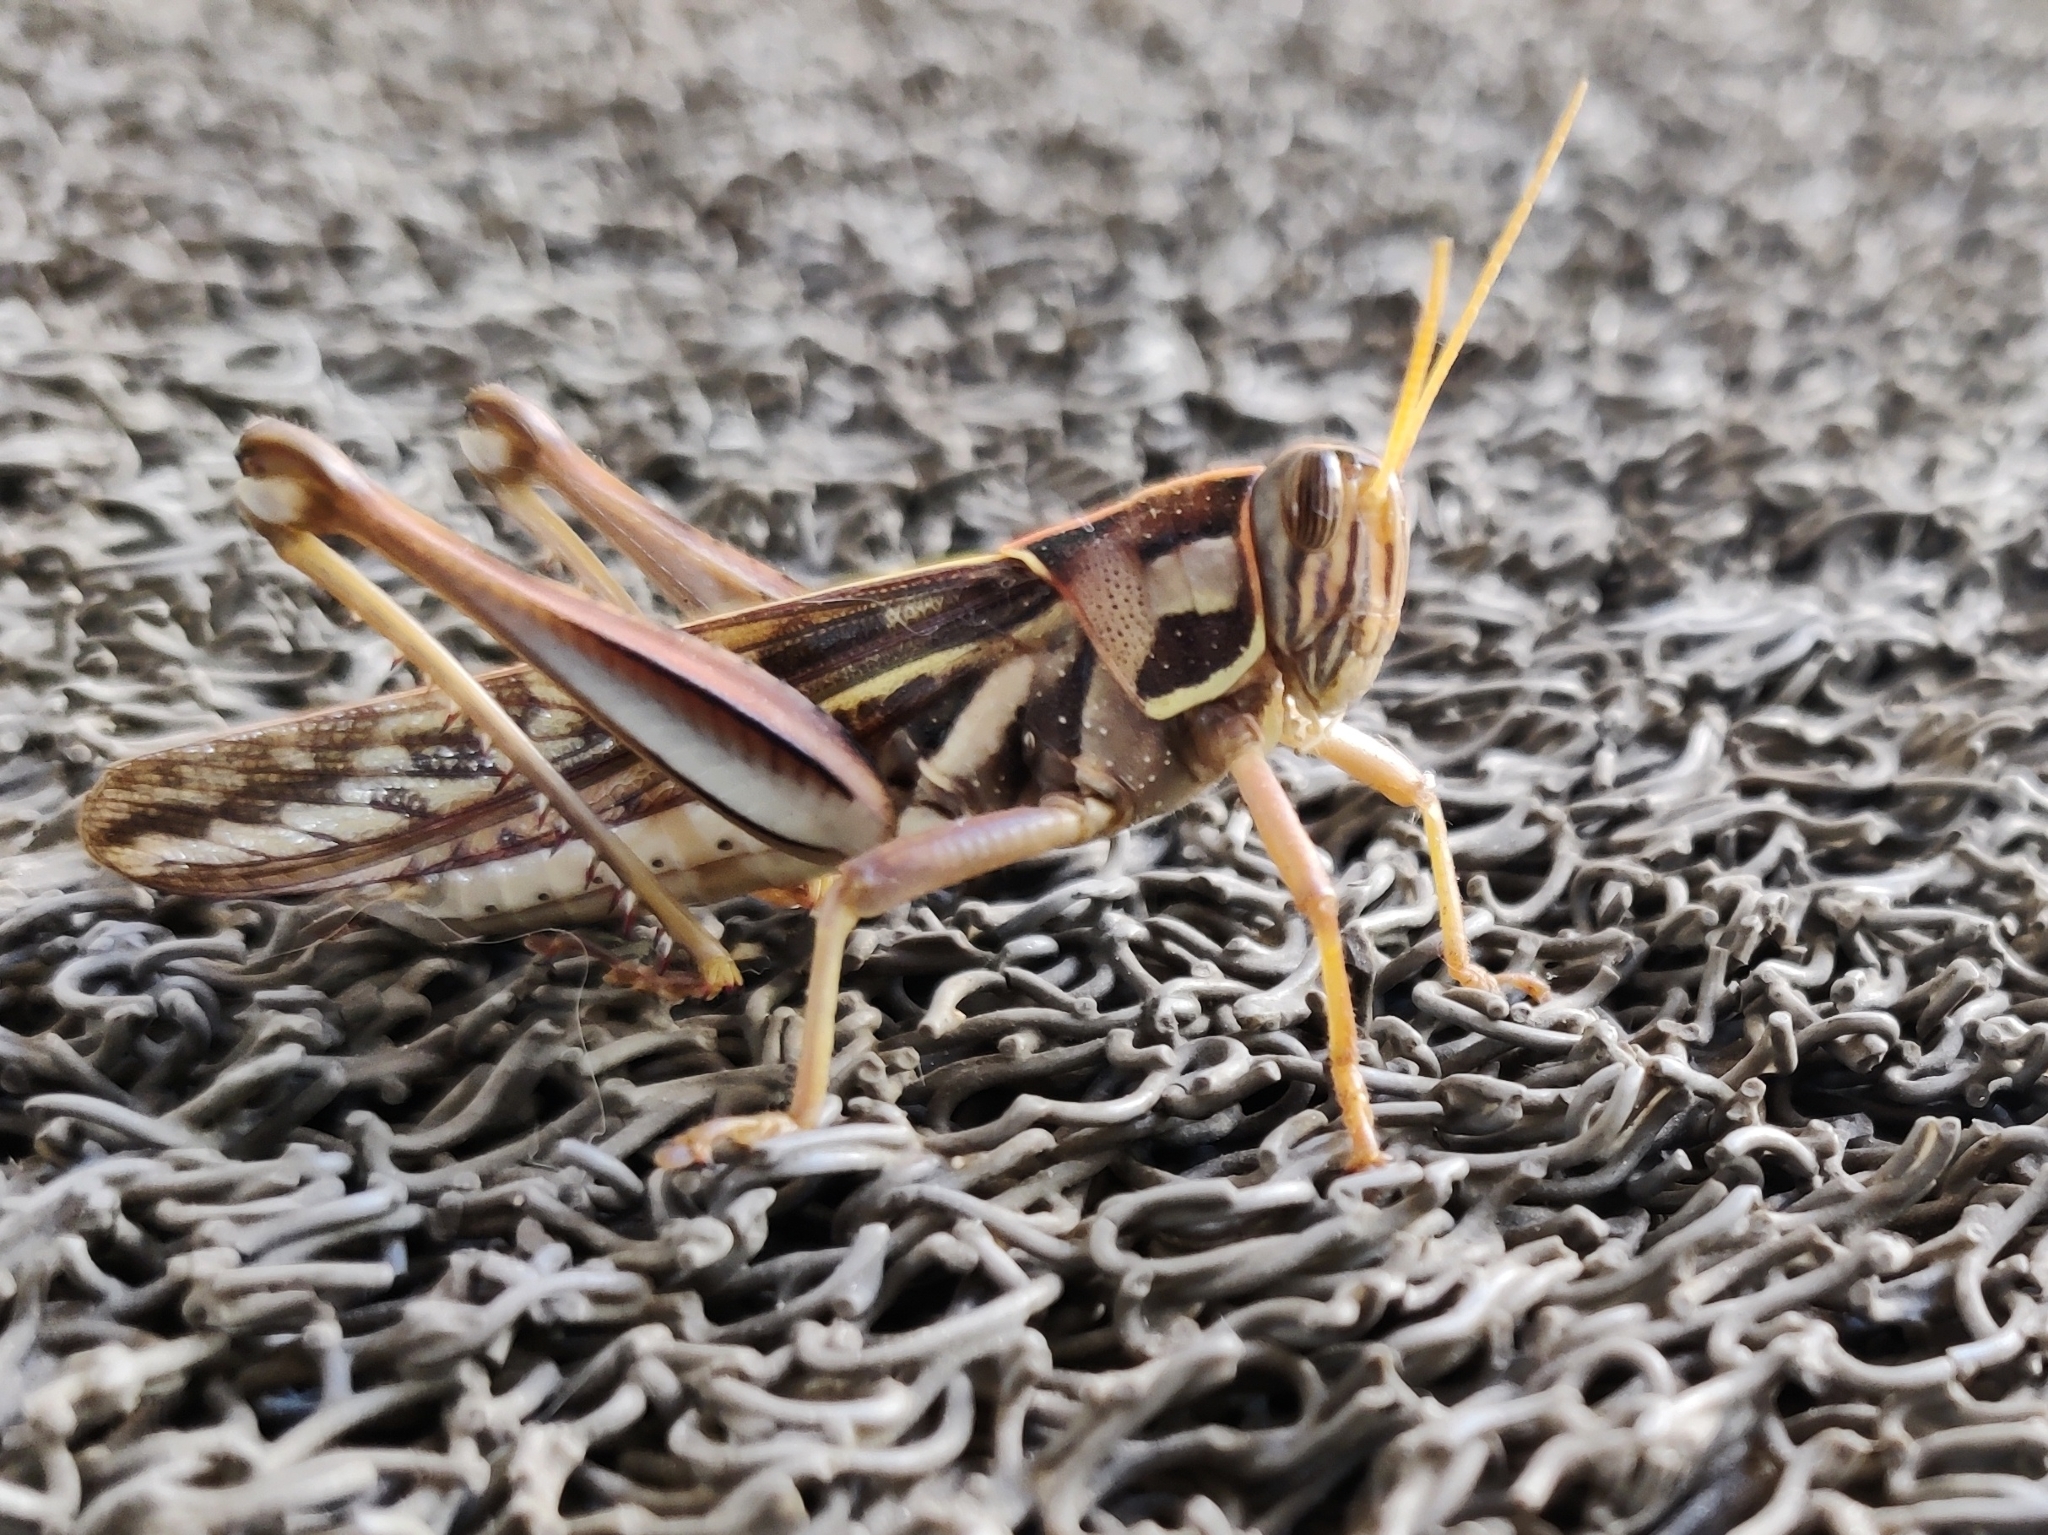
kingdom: Animalia
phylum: Arthropoda
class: Insecta
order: Orthoptera
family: Acrididae
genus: Cyrtacanthacris
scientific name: Cyrtacanthacris tatarica
